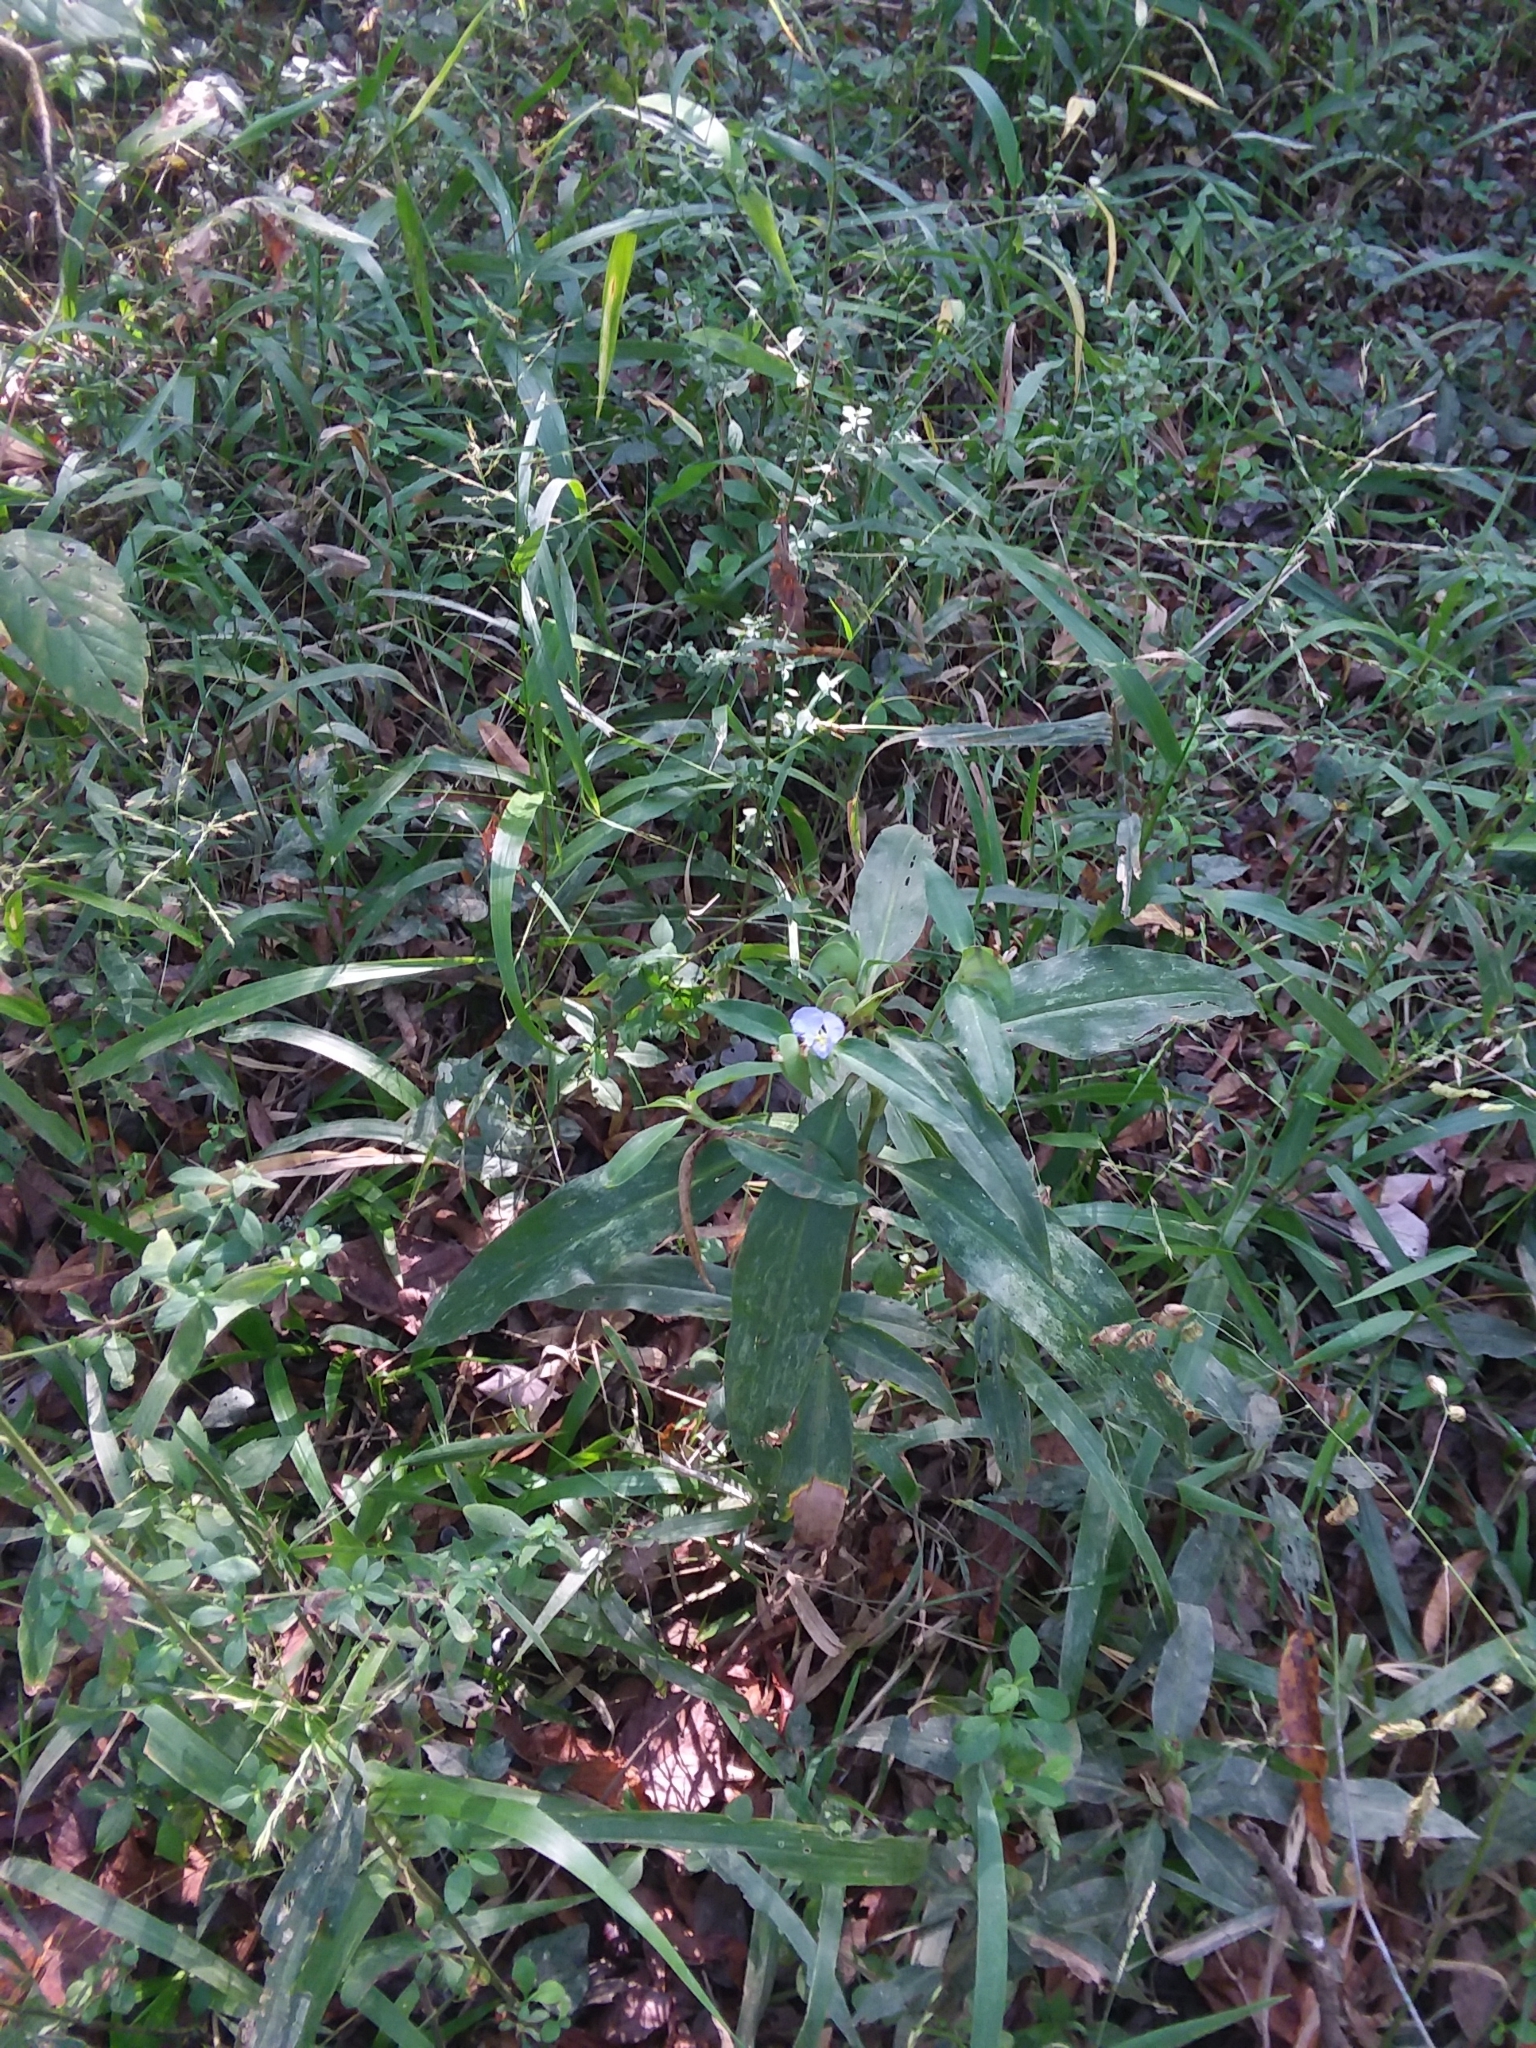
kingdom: Plantae
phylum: Tracheophyta
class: Liliopsida
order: Commelinales
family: Commelinaceae
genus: Commelina
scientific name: Commelina virginica
